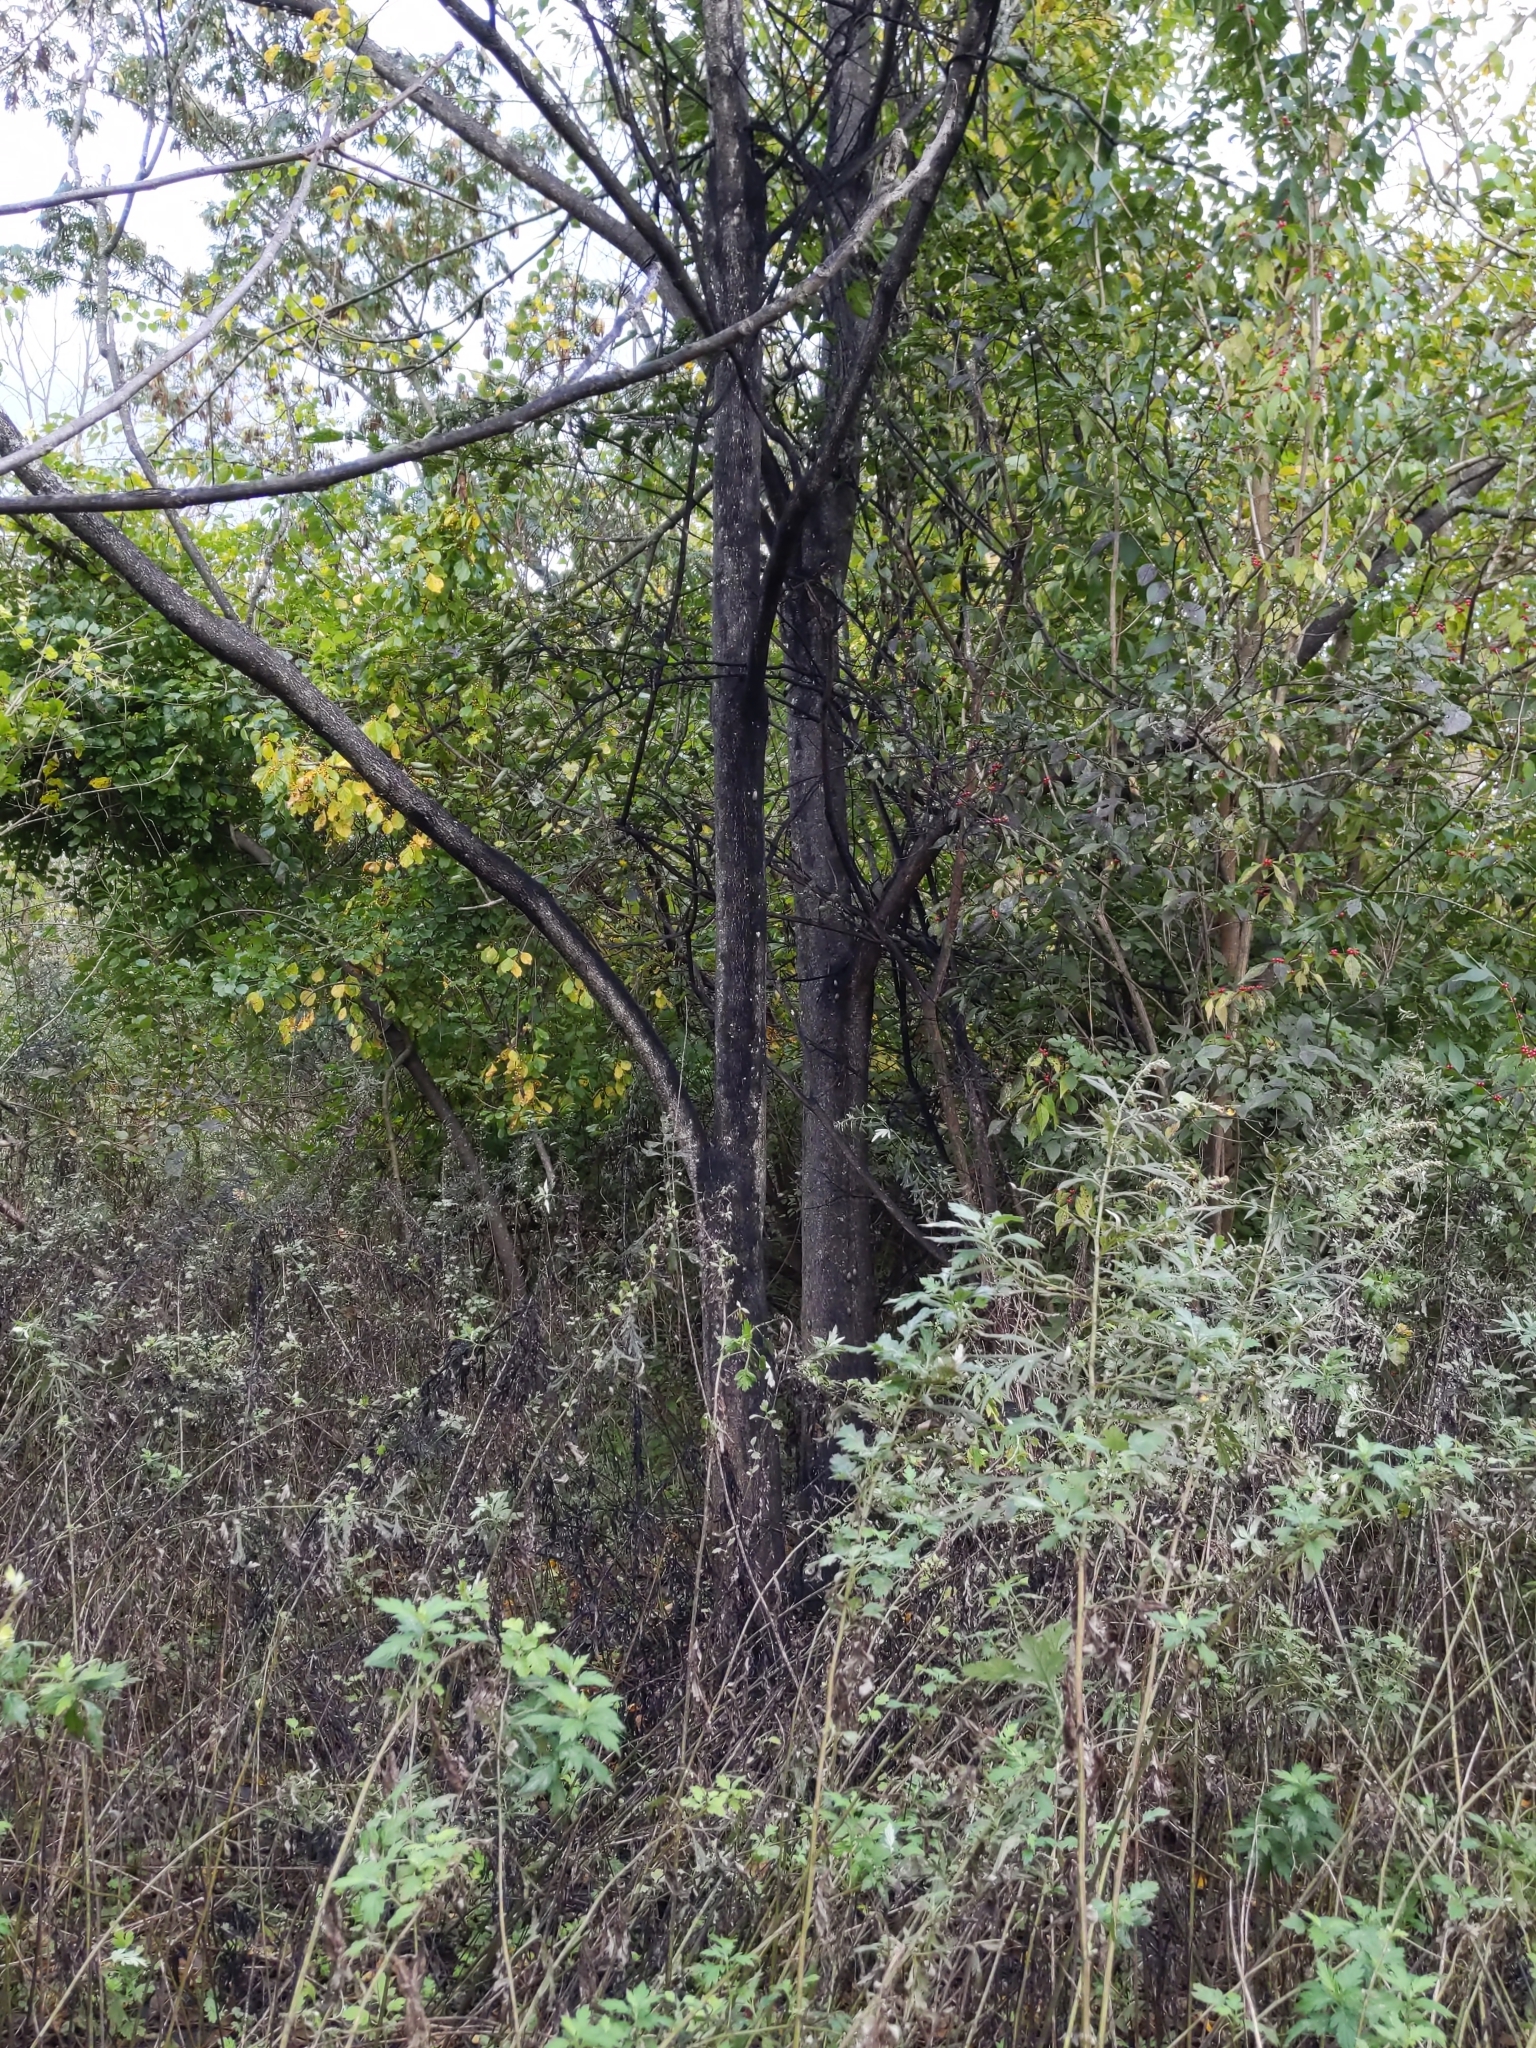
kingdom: Animalia
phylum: Arthropoda
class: Insecta
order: Hemiptera
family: Fulgoridae
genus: Lycorma
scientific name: Lycorma delicatula
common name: Spotted lanternfly
